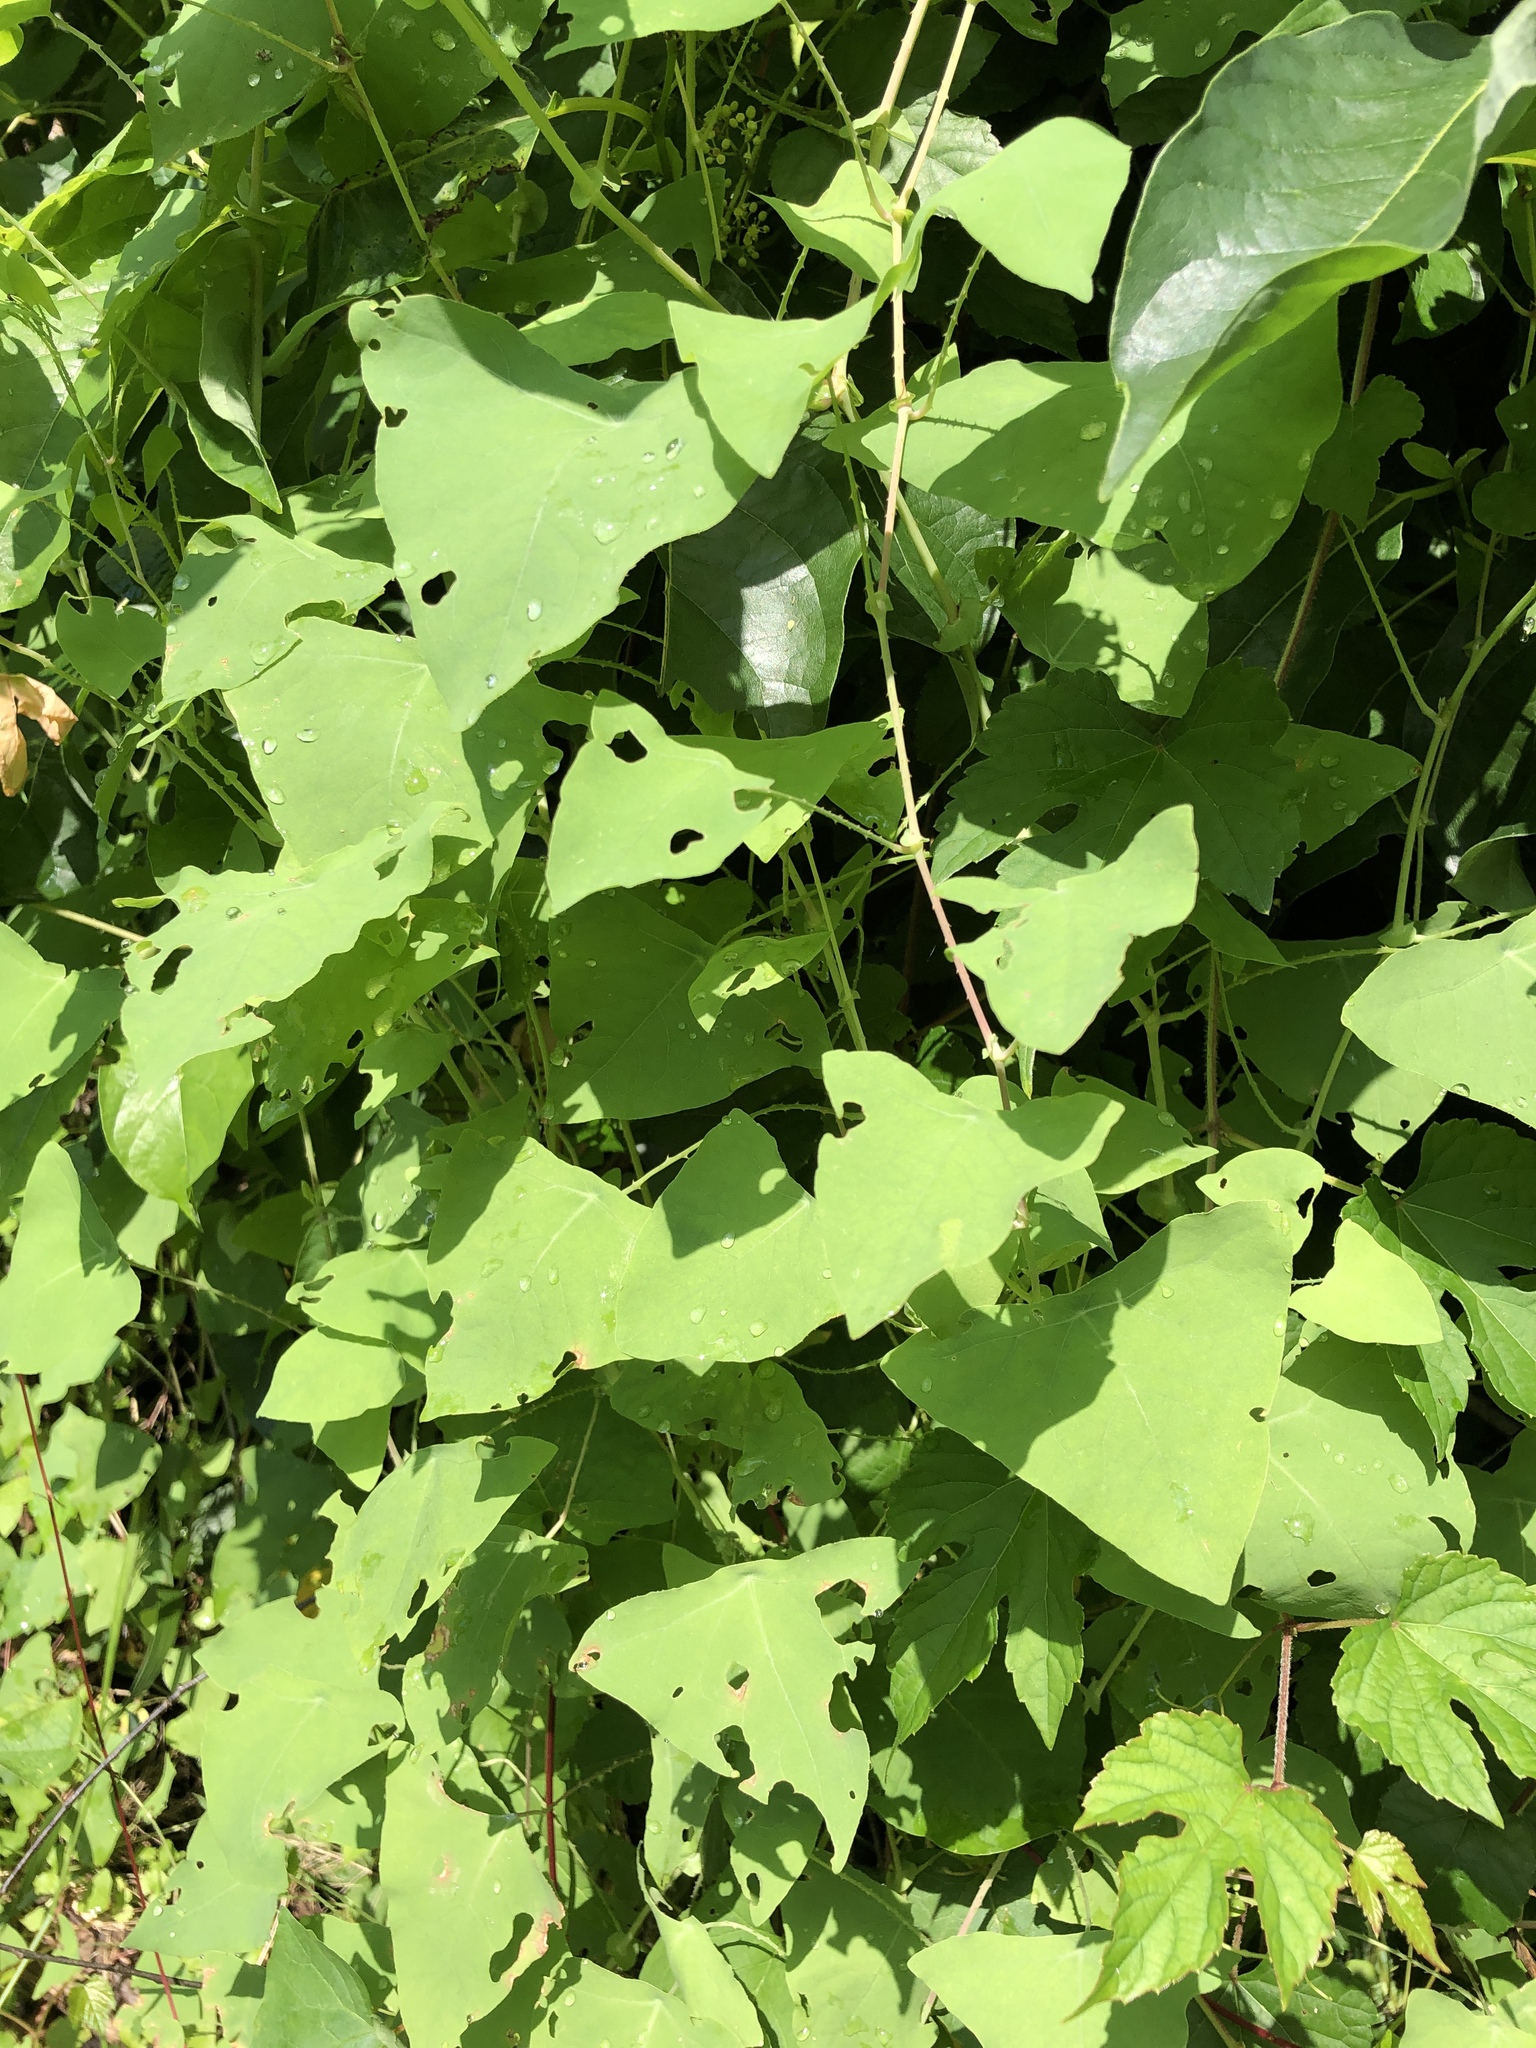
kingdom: Plantae
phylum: Tracheophyta
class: Magnoliopsida
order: Caryophyllales
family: Polygonaceae
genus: Persicaria
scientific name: Persicaria perfoliata
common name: Asiatic tearthumb
